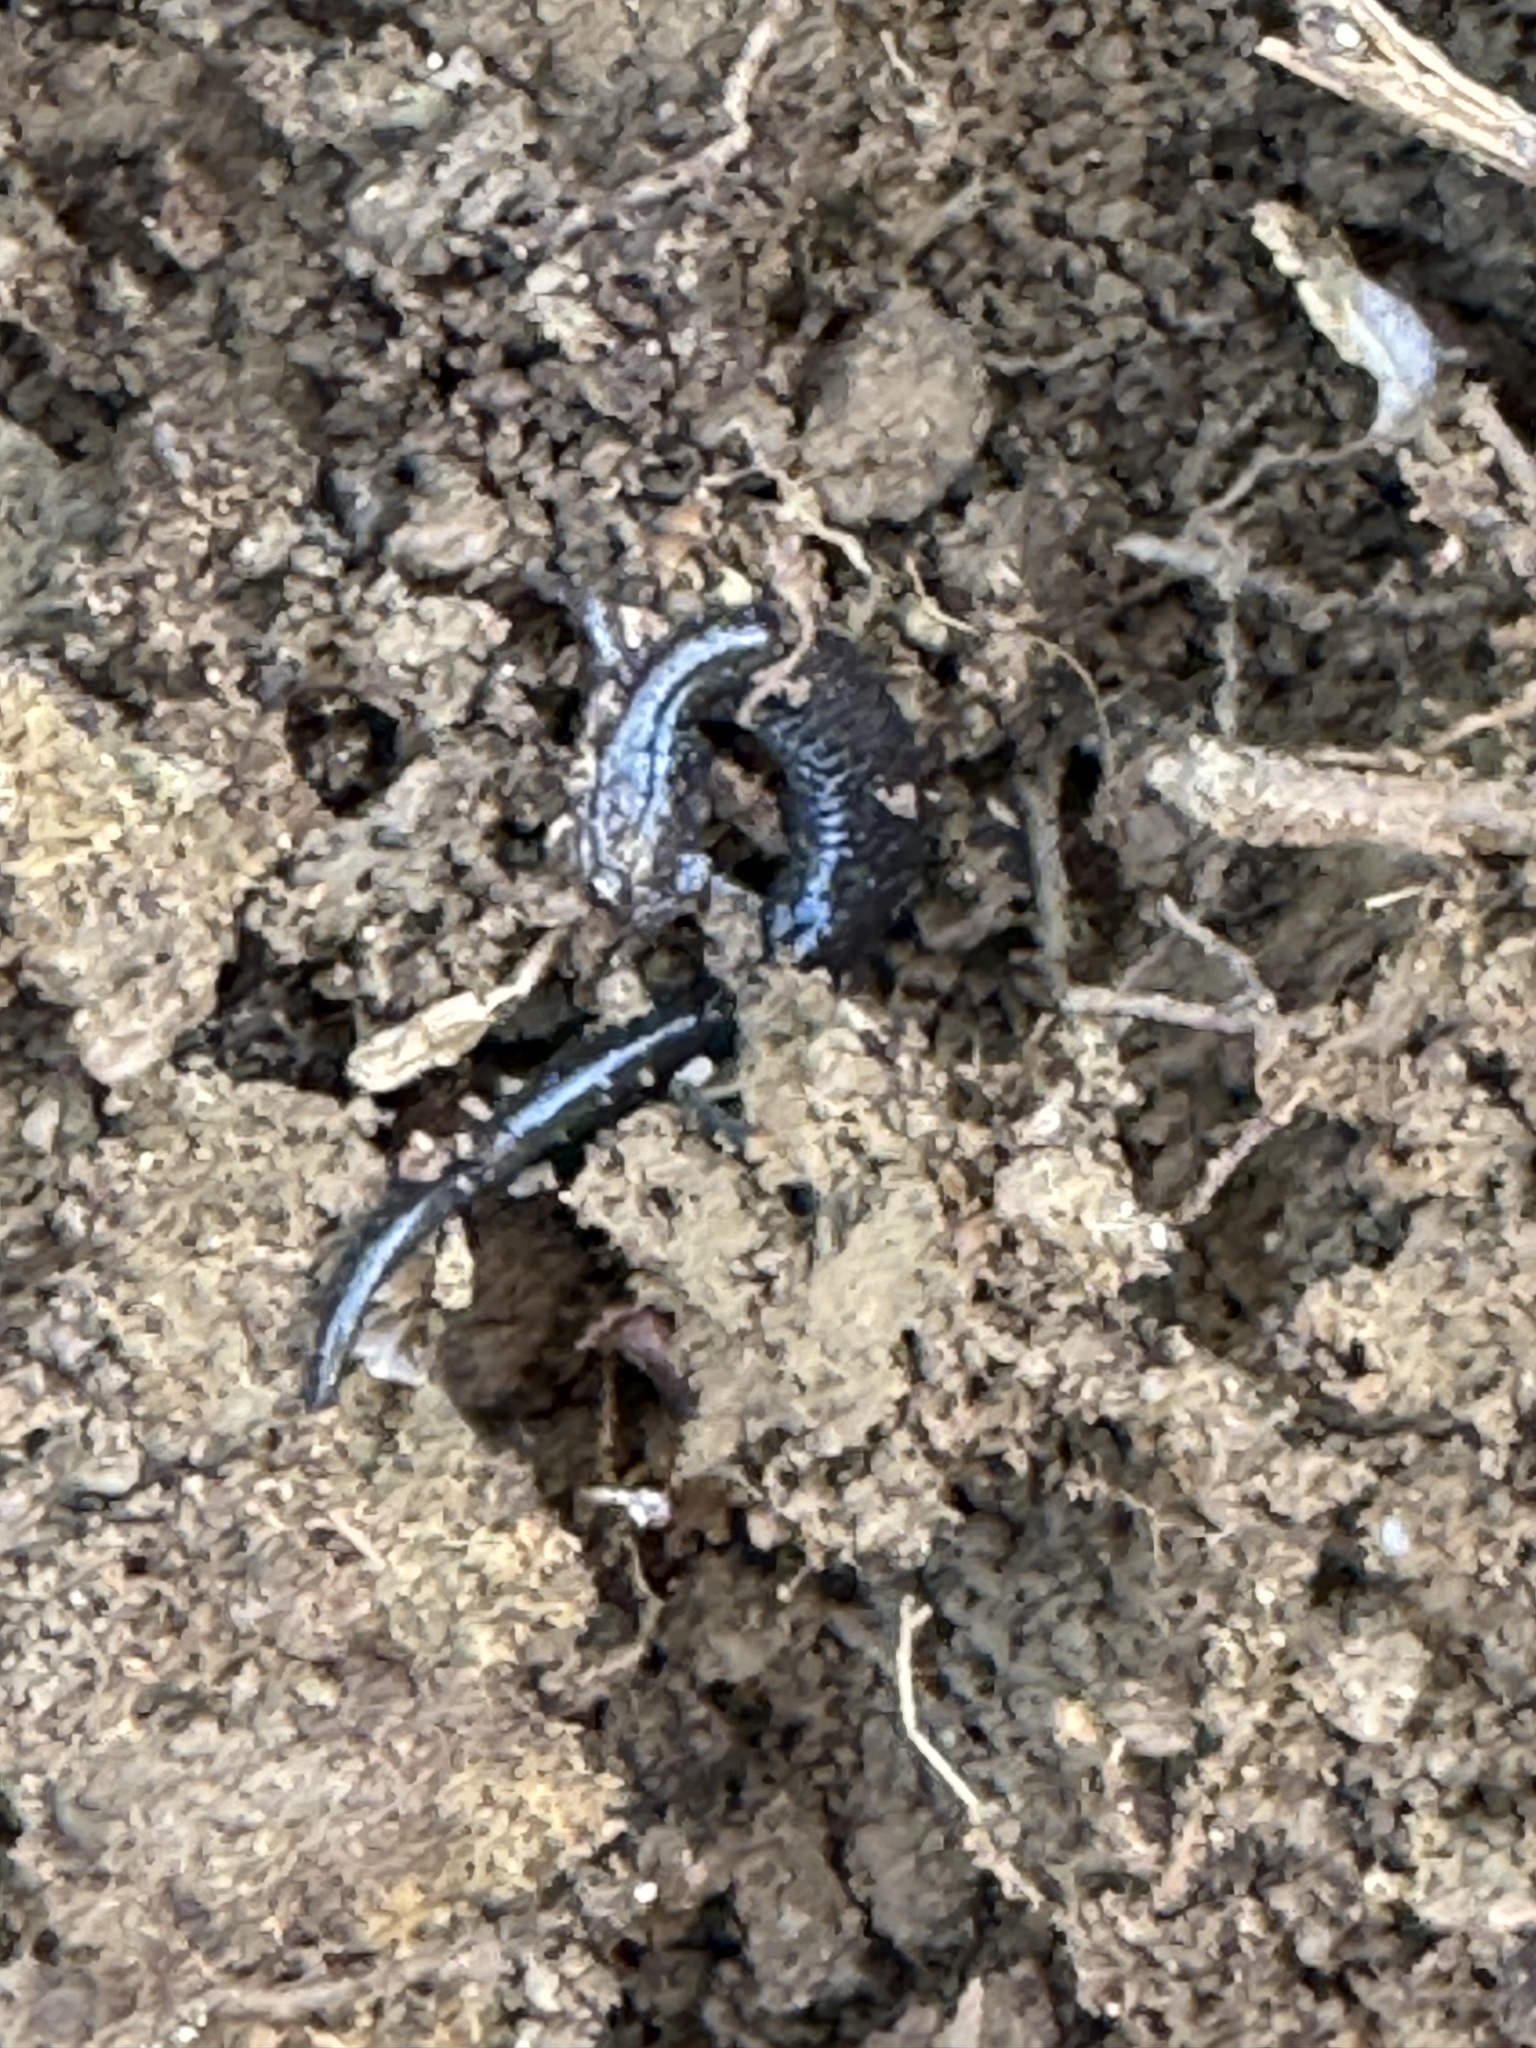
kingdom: Animalia
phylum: Chordata
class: Amphibia
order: Caudata
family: Plethodontidae
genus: Plethodon
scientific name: Plethodon cinereus
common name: Redback salamander
